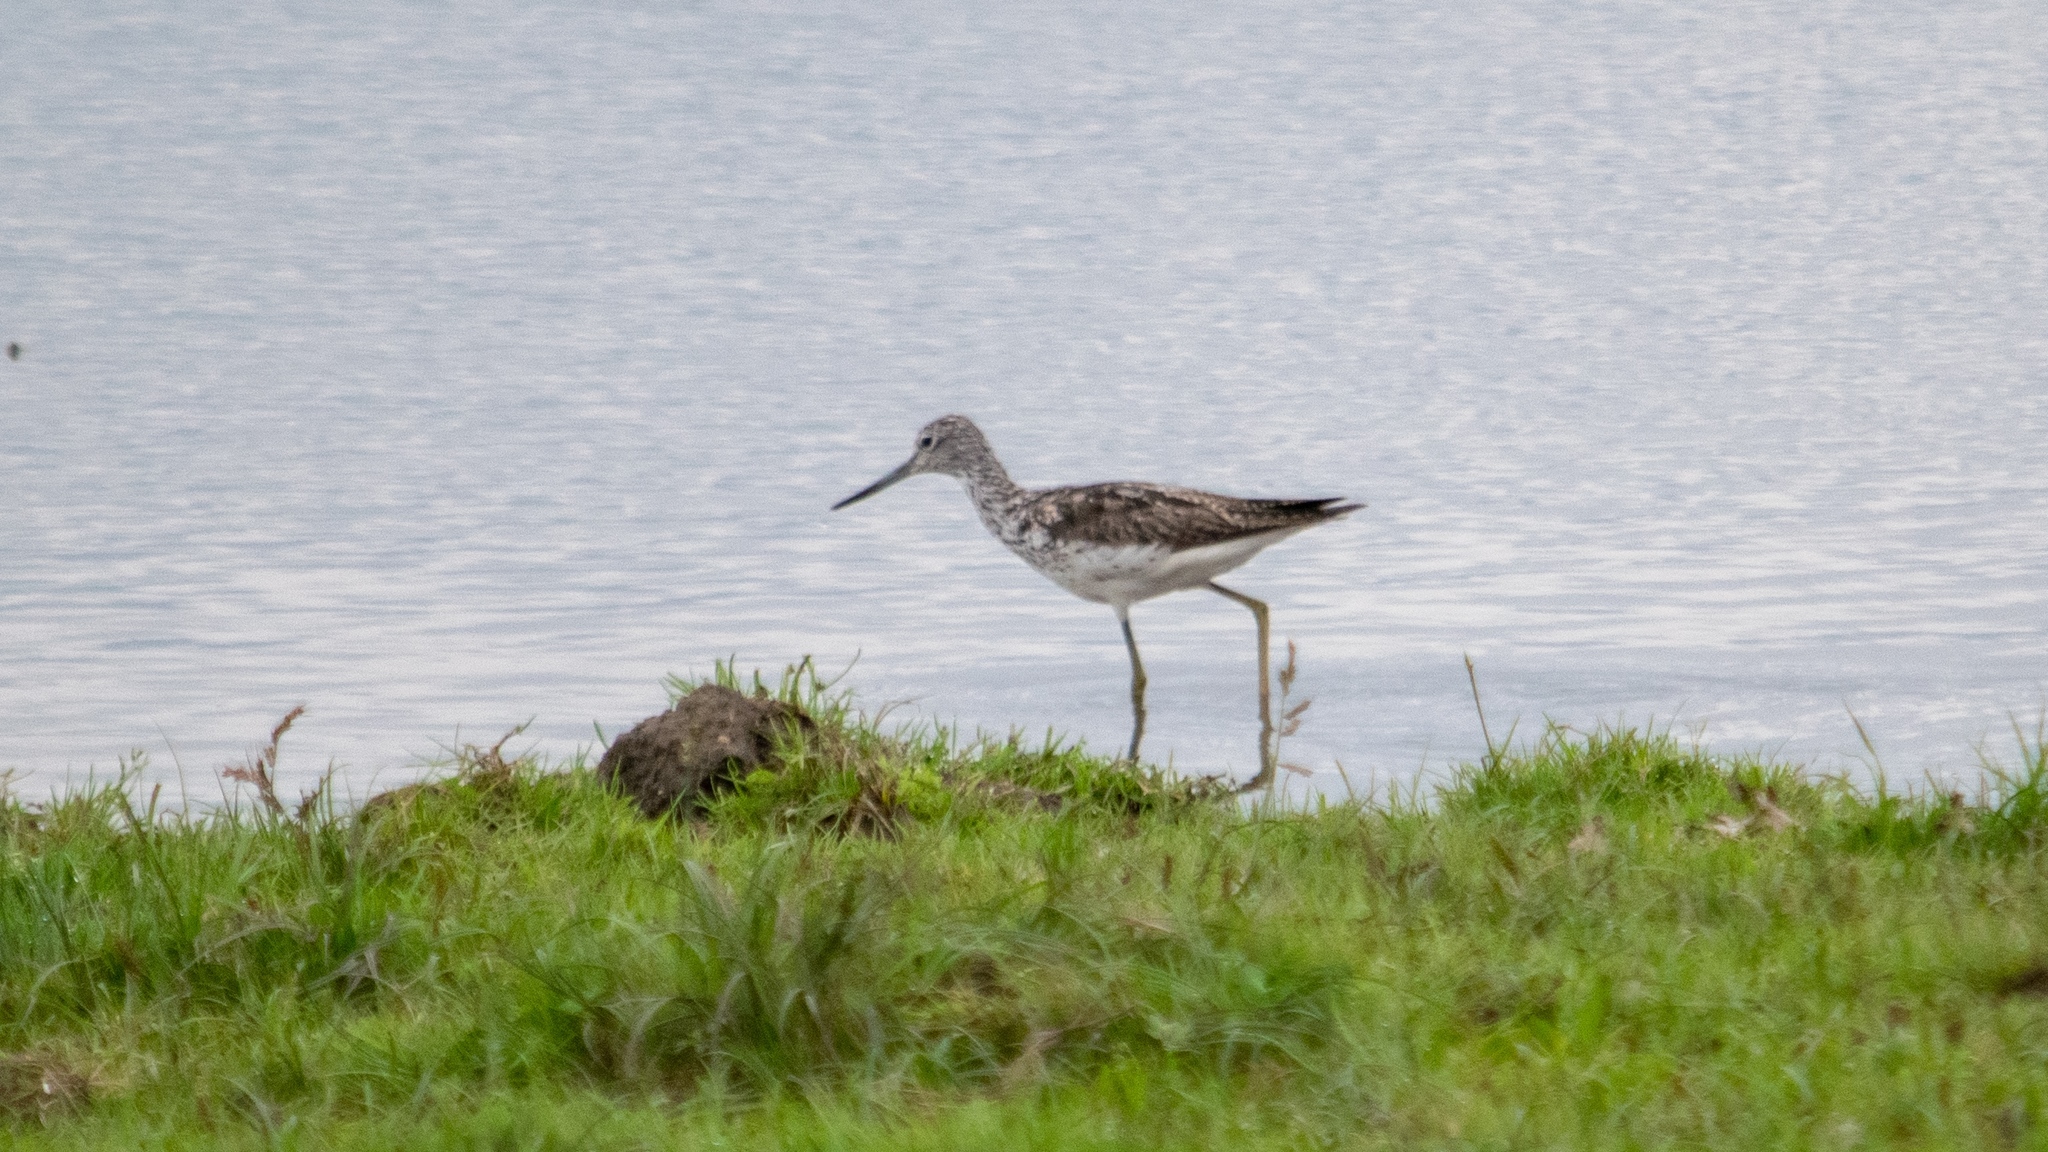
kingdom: Animalia
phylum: Chordata
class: Aves
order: Charadriiformes
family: Scolopacidae
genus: Tringa
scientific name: Tringa nebularia
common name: Common greenshank
